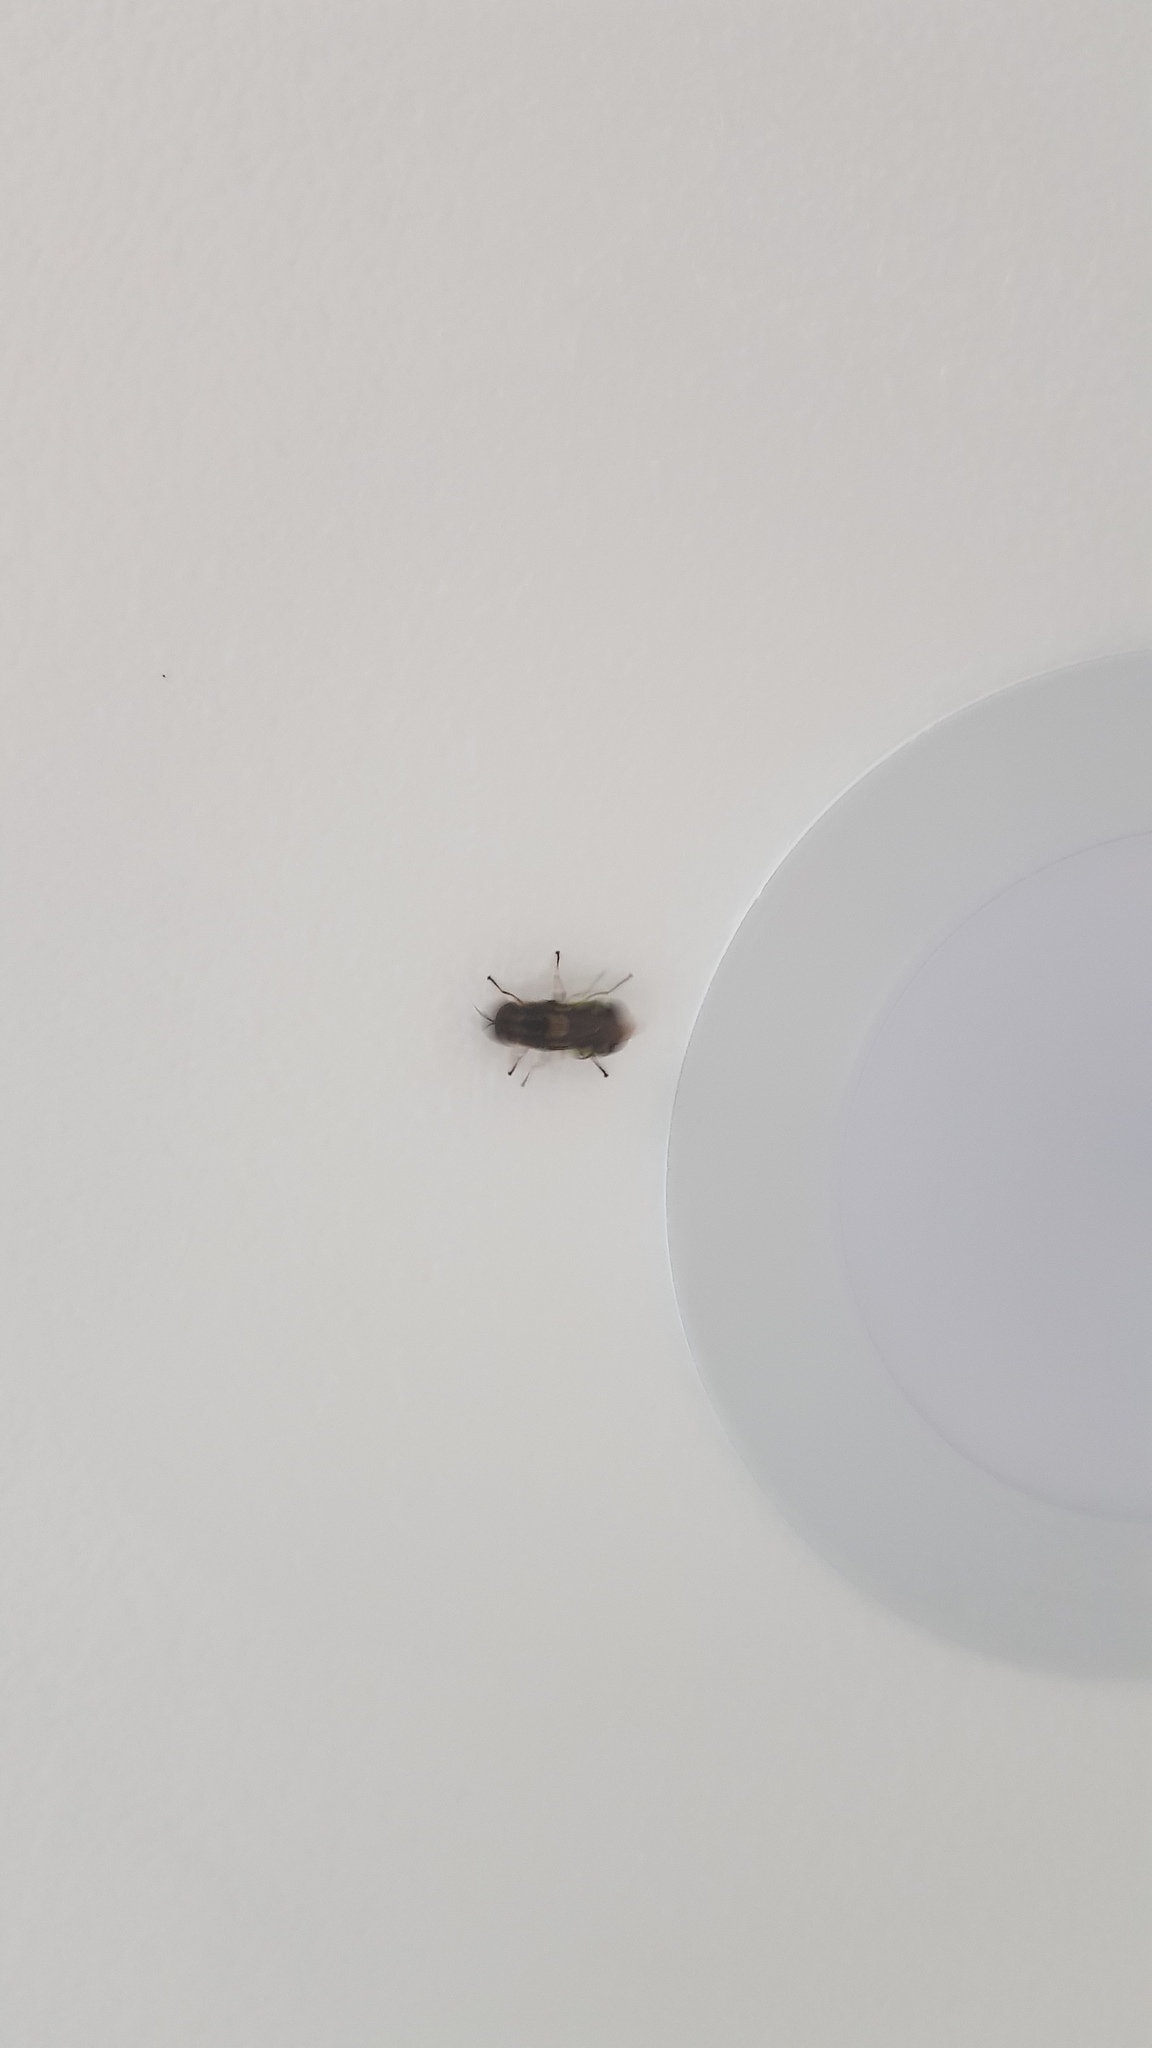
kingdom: Animalia
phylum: Arthropoda
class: Insecta
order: Diptera
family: Stratiomyidae
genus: Odontomyia
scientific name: Odontomyia hunteri
